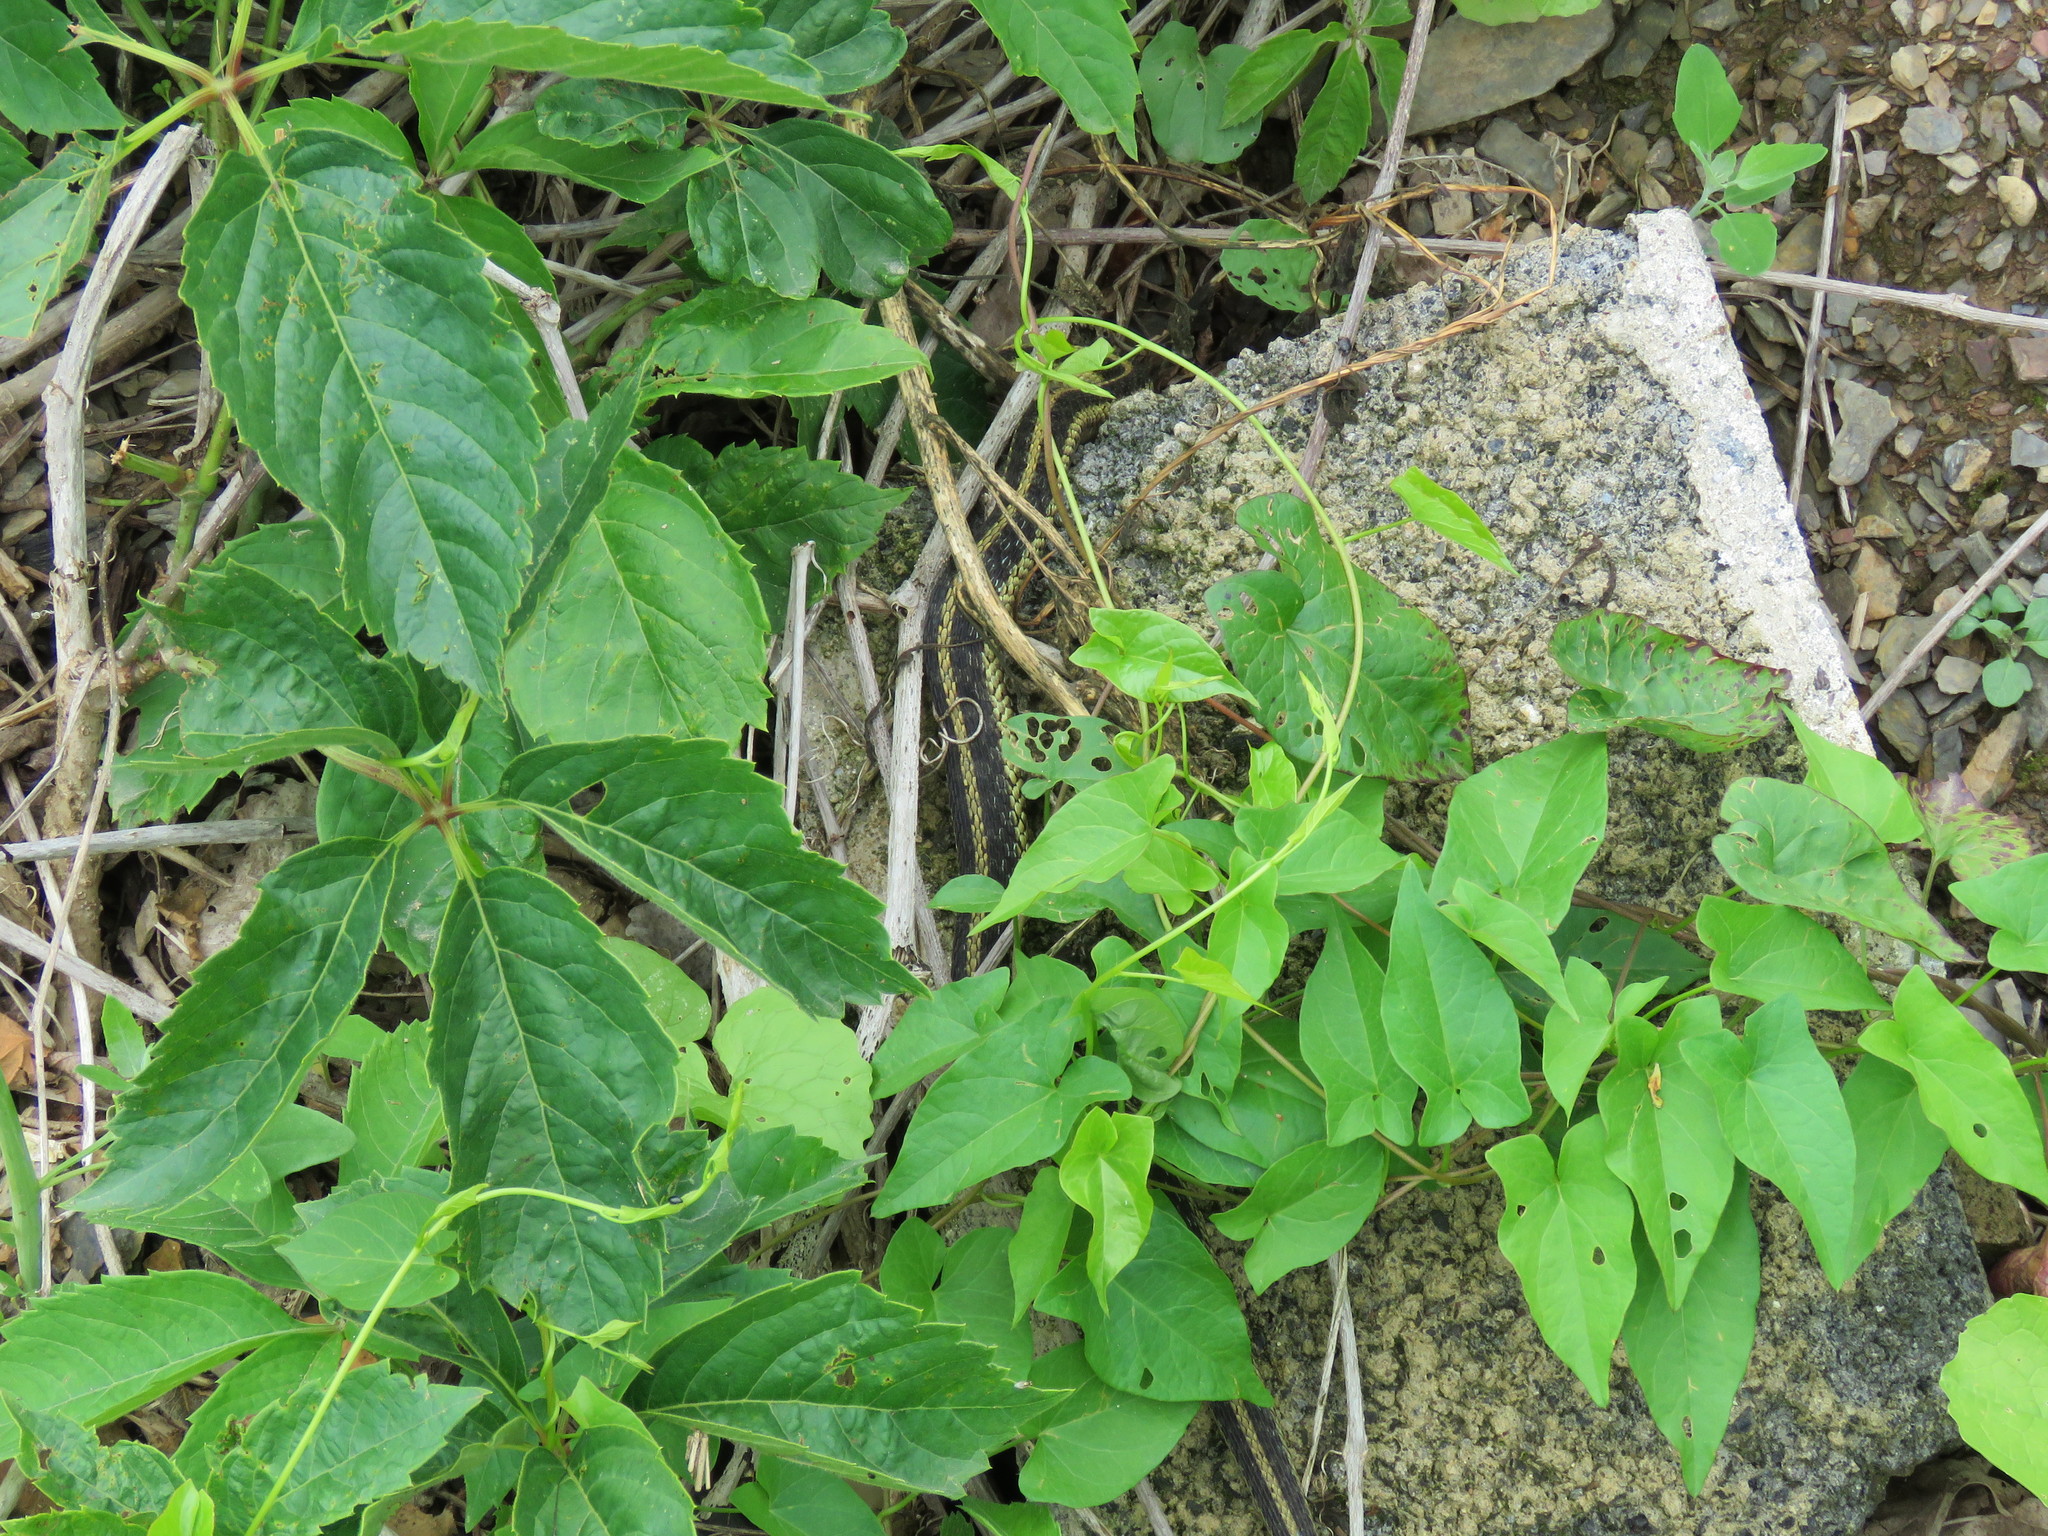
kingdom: Animalia
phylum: Chordata
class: Squamata
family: Colubridae
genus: Thamnophis
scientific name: Thamnophis sirtalis
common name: Common garter snake
